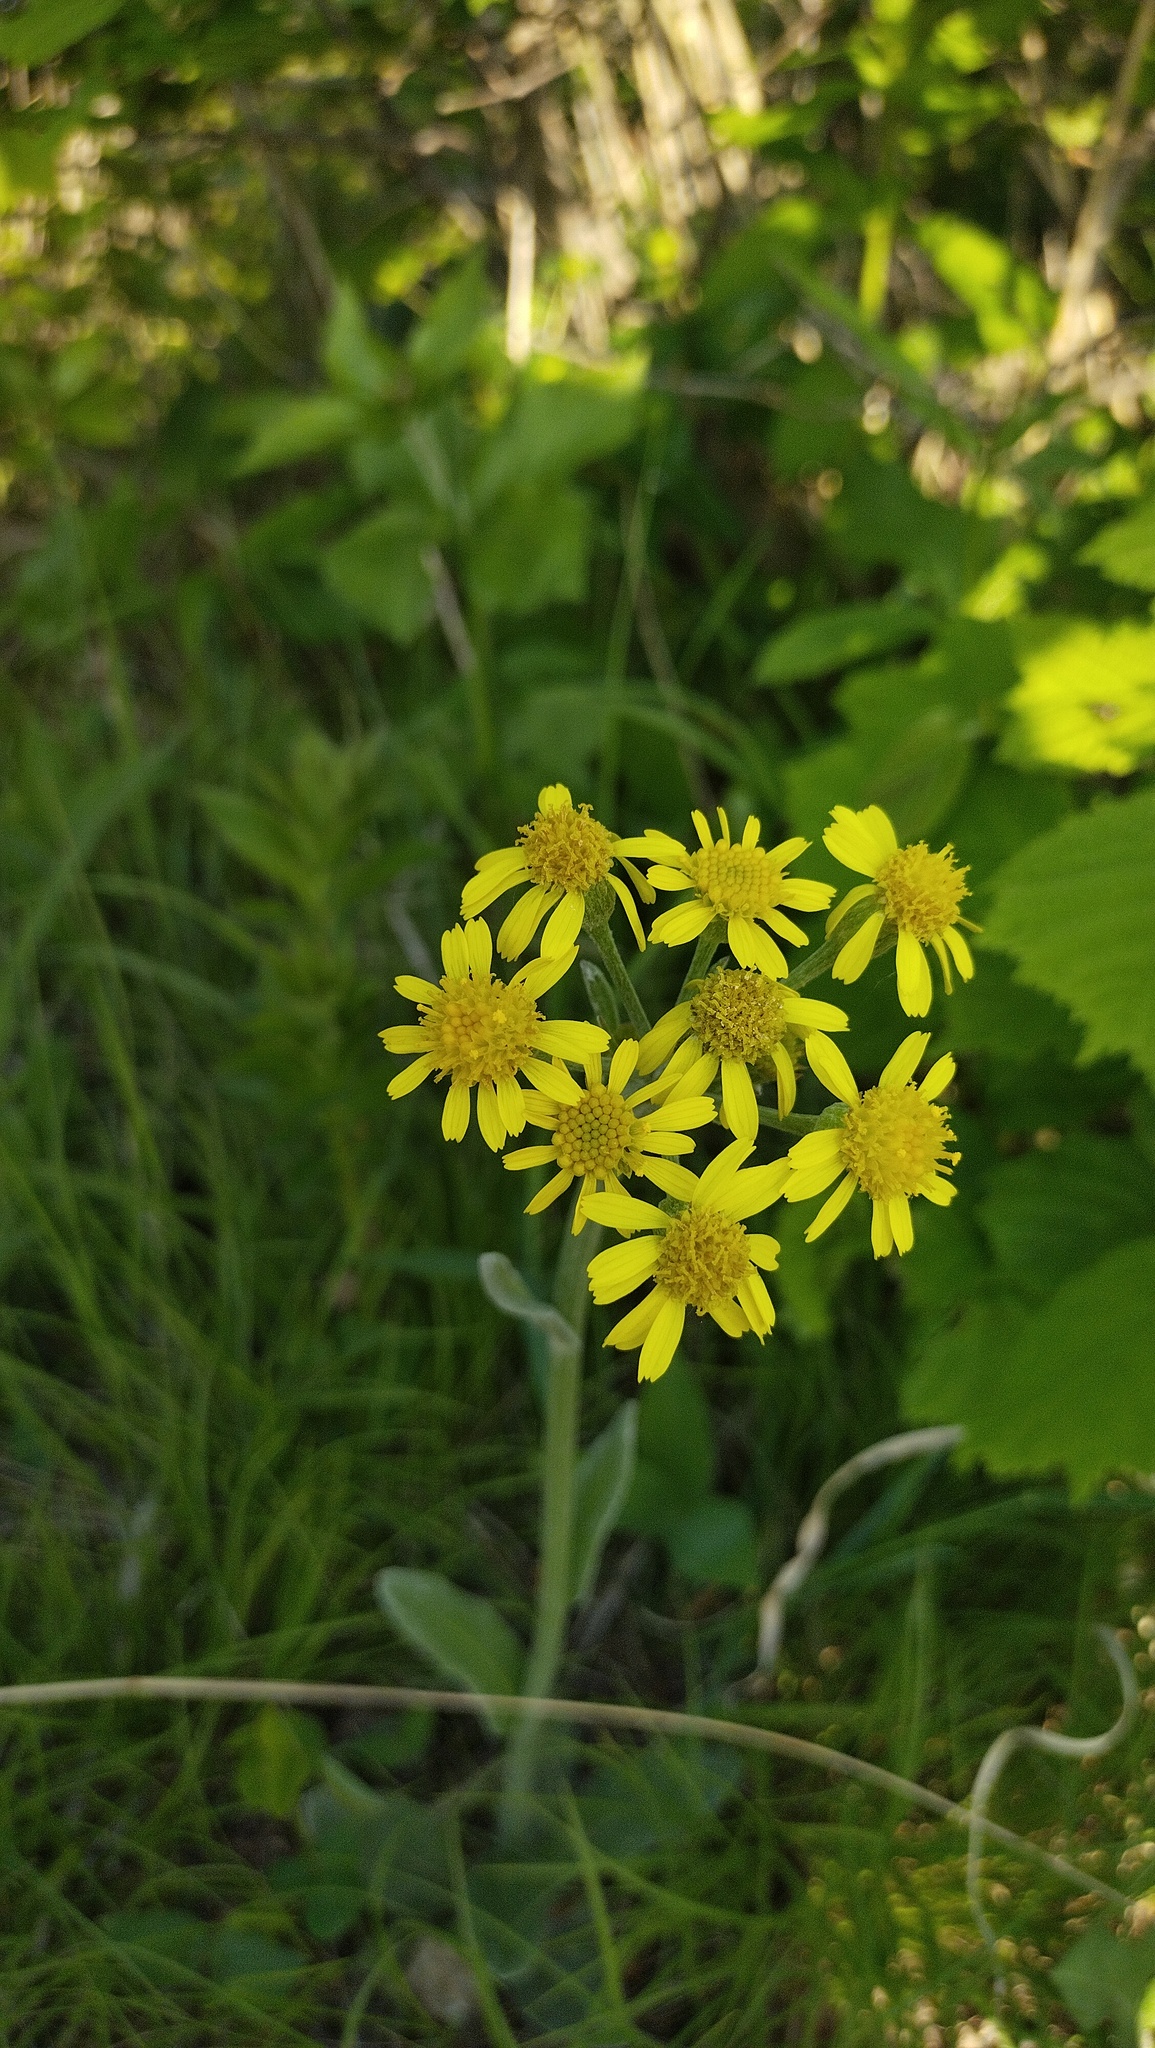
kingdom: Plantae
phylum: Tracheophyta
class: Magnoliopsida
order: Asterales
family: Asteraceae
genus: Tephroseris
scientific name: Tephroseris kirilowii
